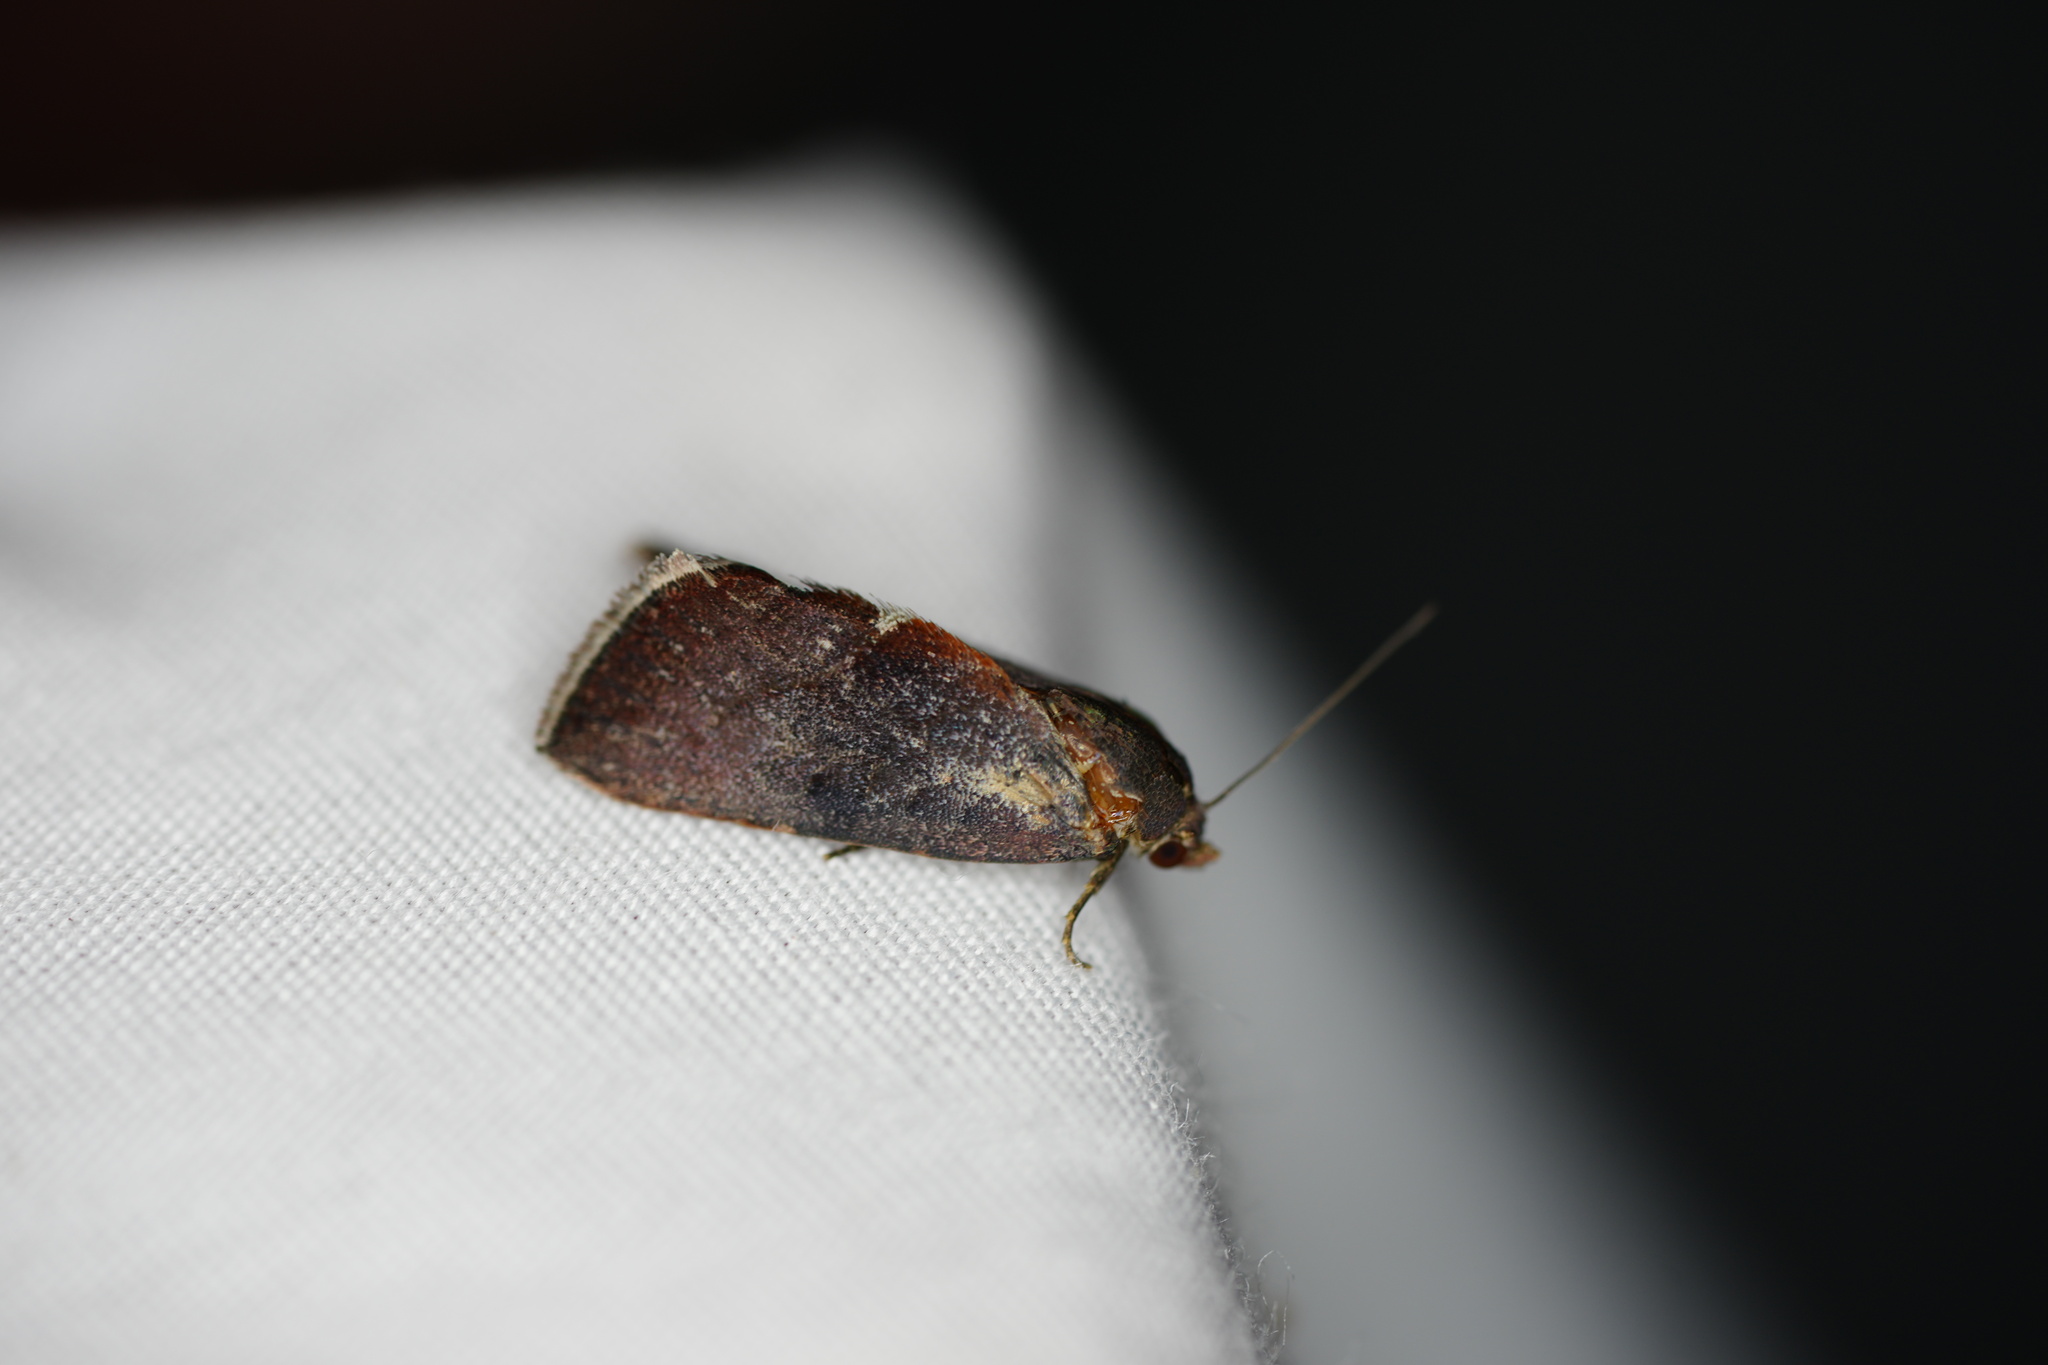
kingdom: Animalia
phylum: Arthropoda
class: Insecta
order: Lepidoptera
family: Noctuidae
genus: Galgula
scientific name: Galgula partita
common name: Wedgeling
